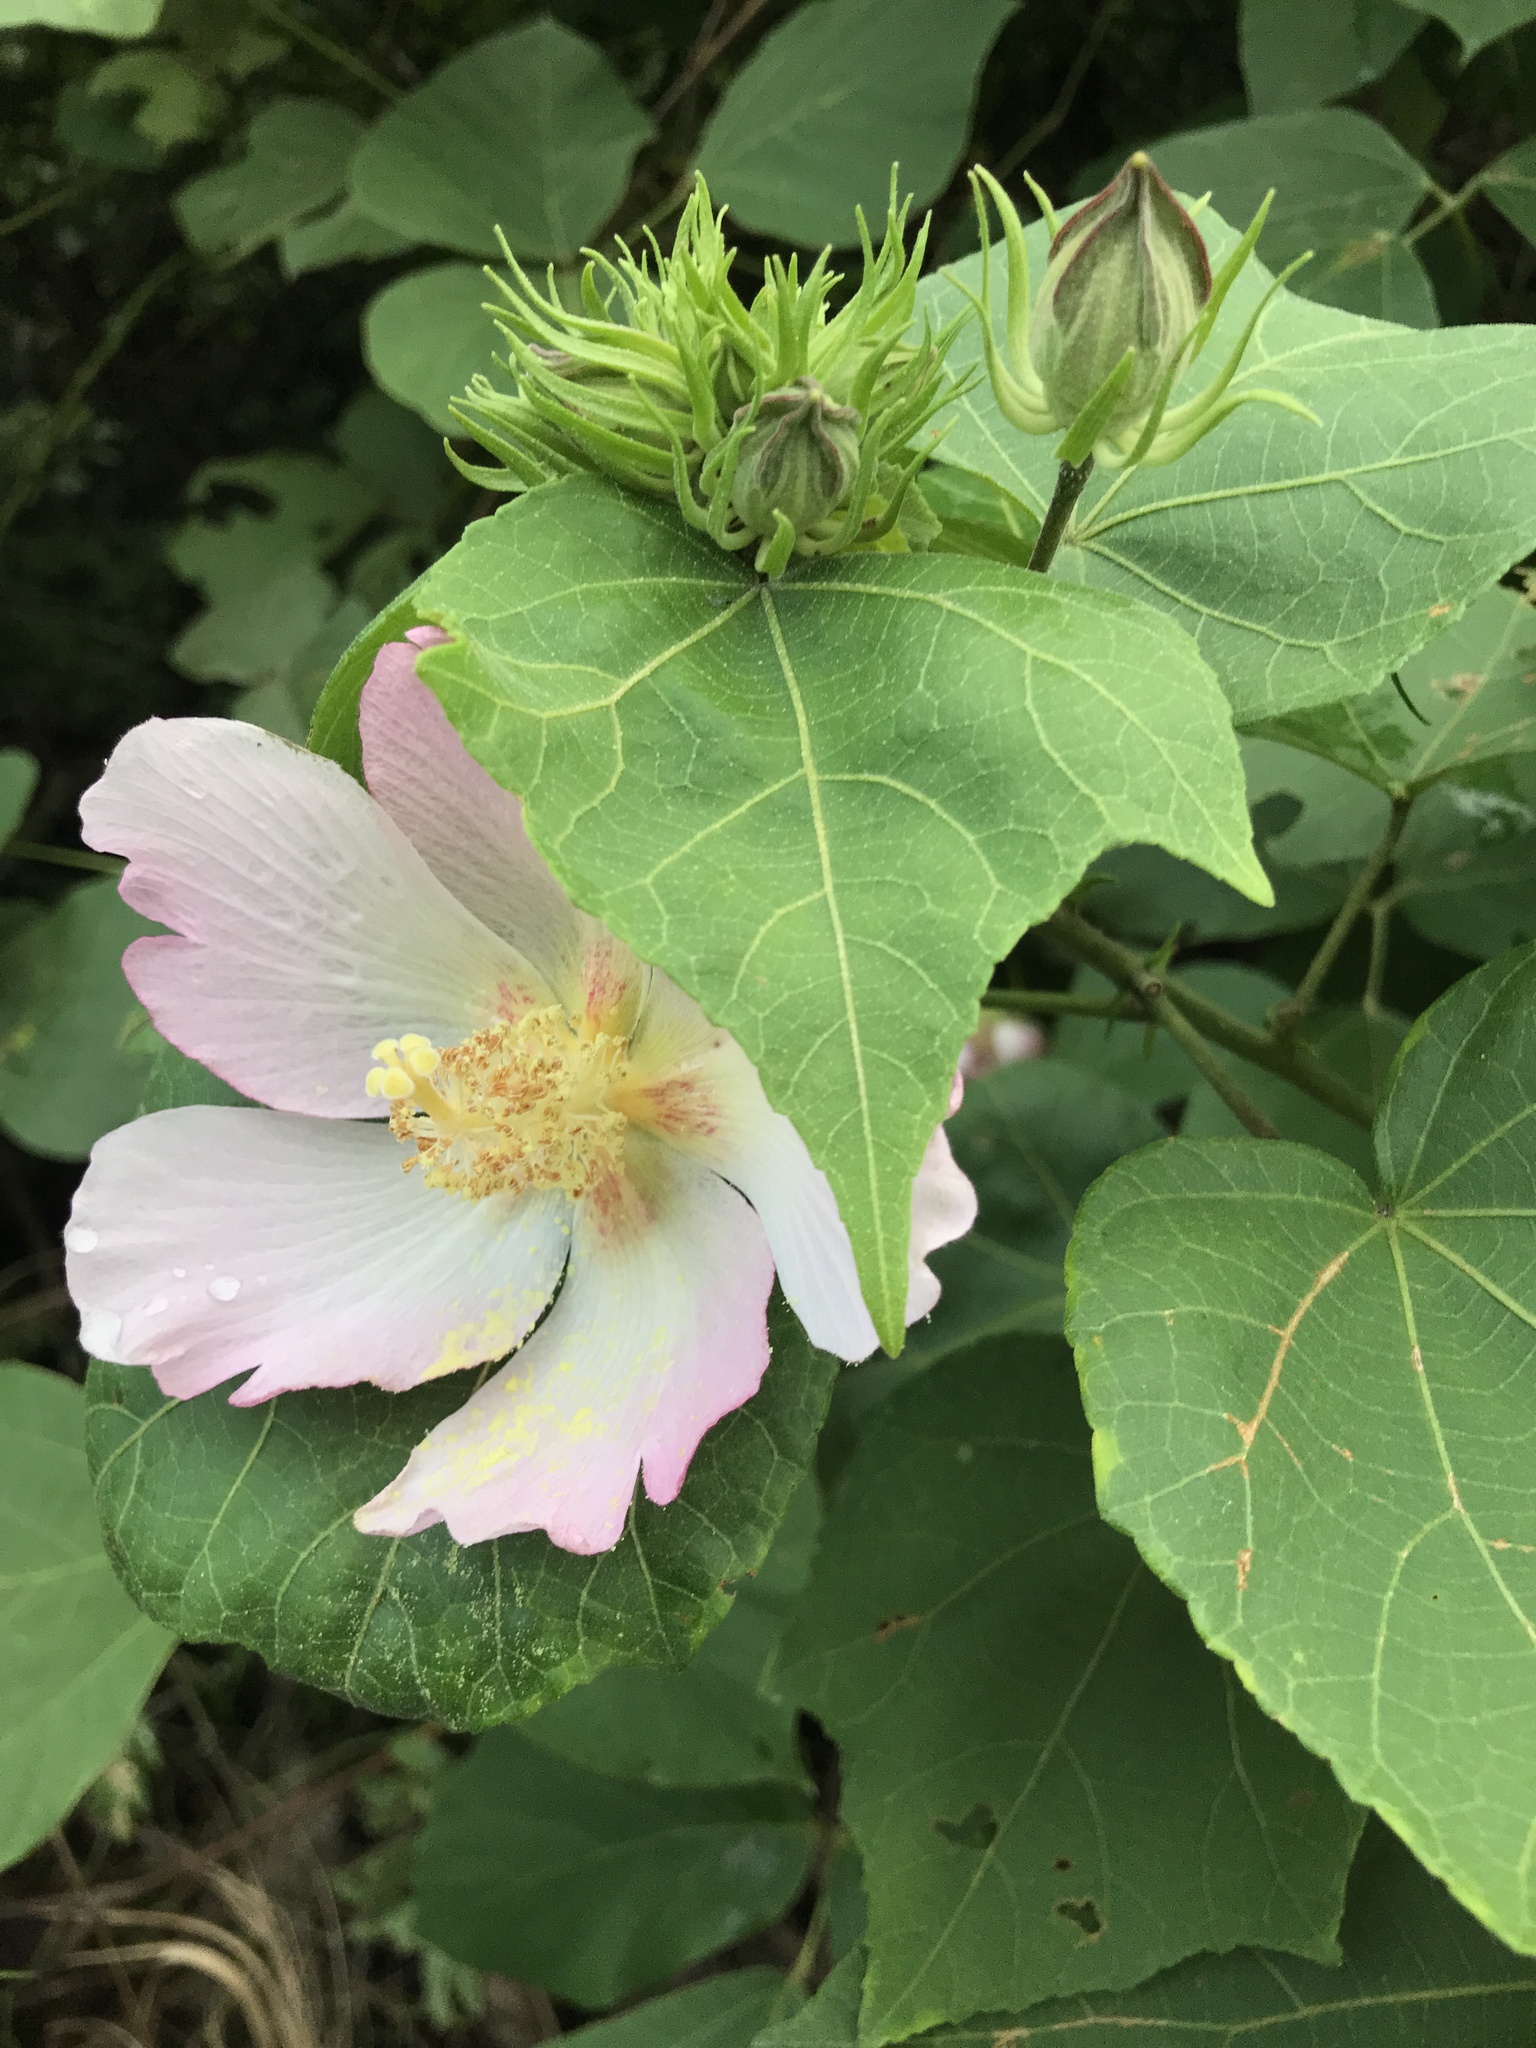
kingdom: Plantae
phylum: Tracheophyta
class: Magnoliopsida
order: Malvales
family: Malvaceae
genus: Hibiscus
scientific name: Hibiscus makinoi
